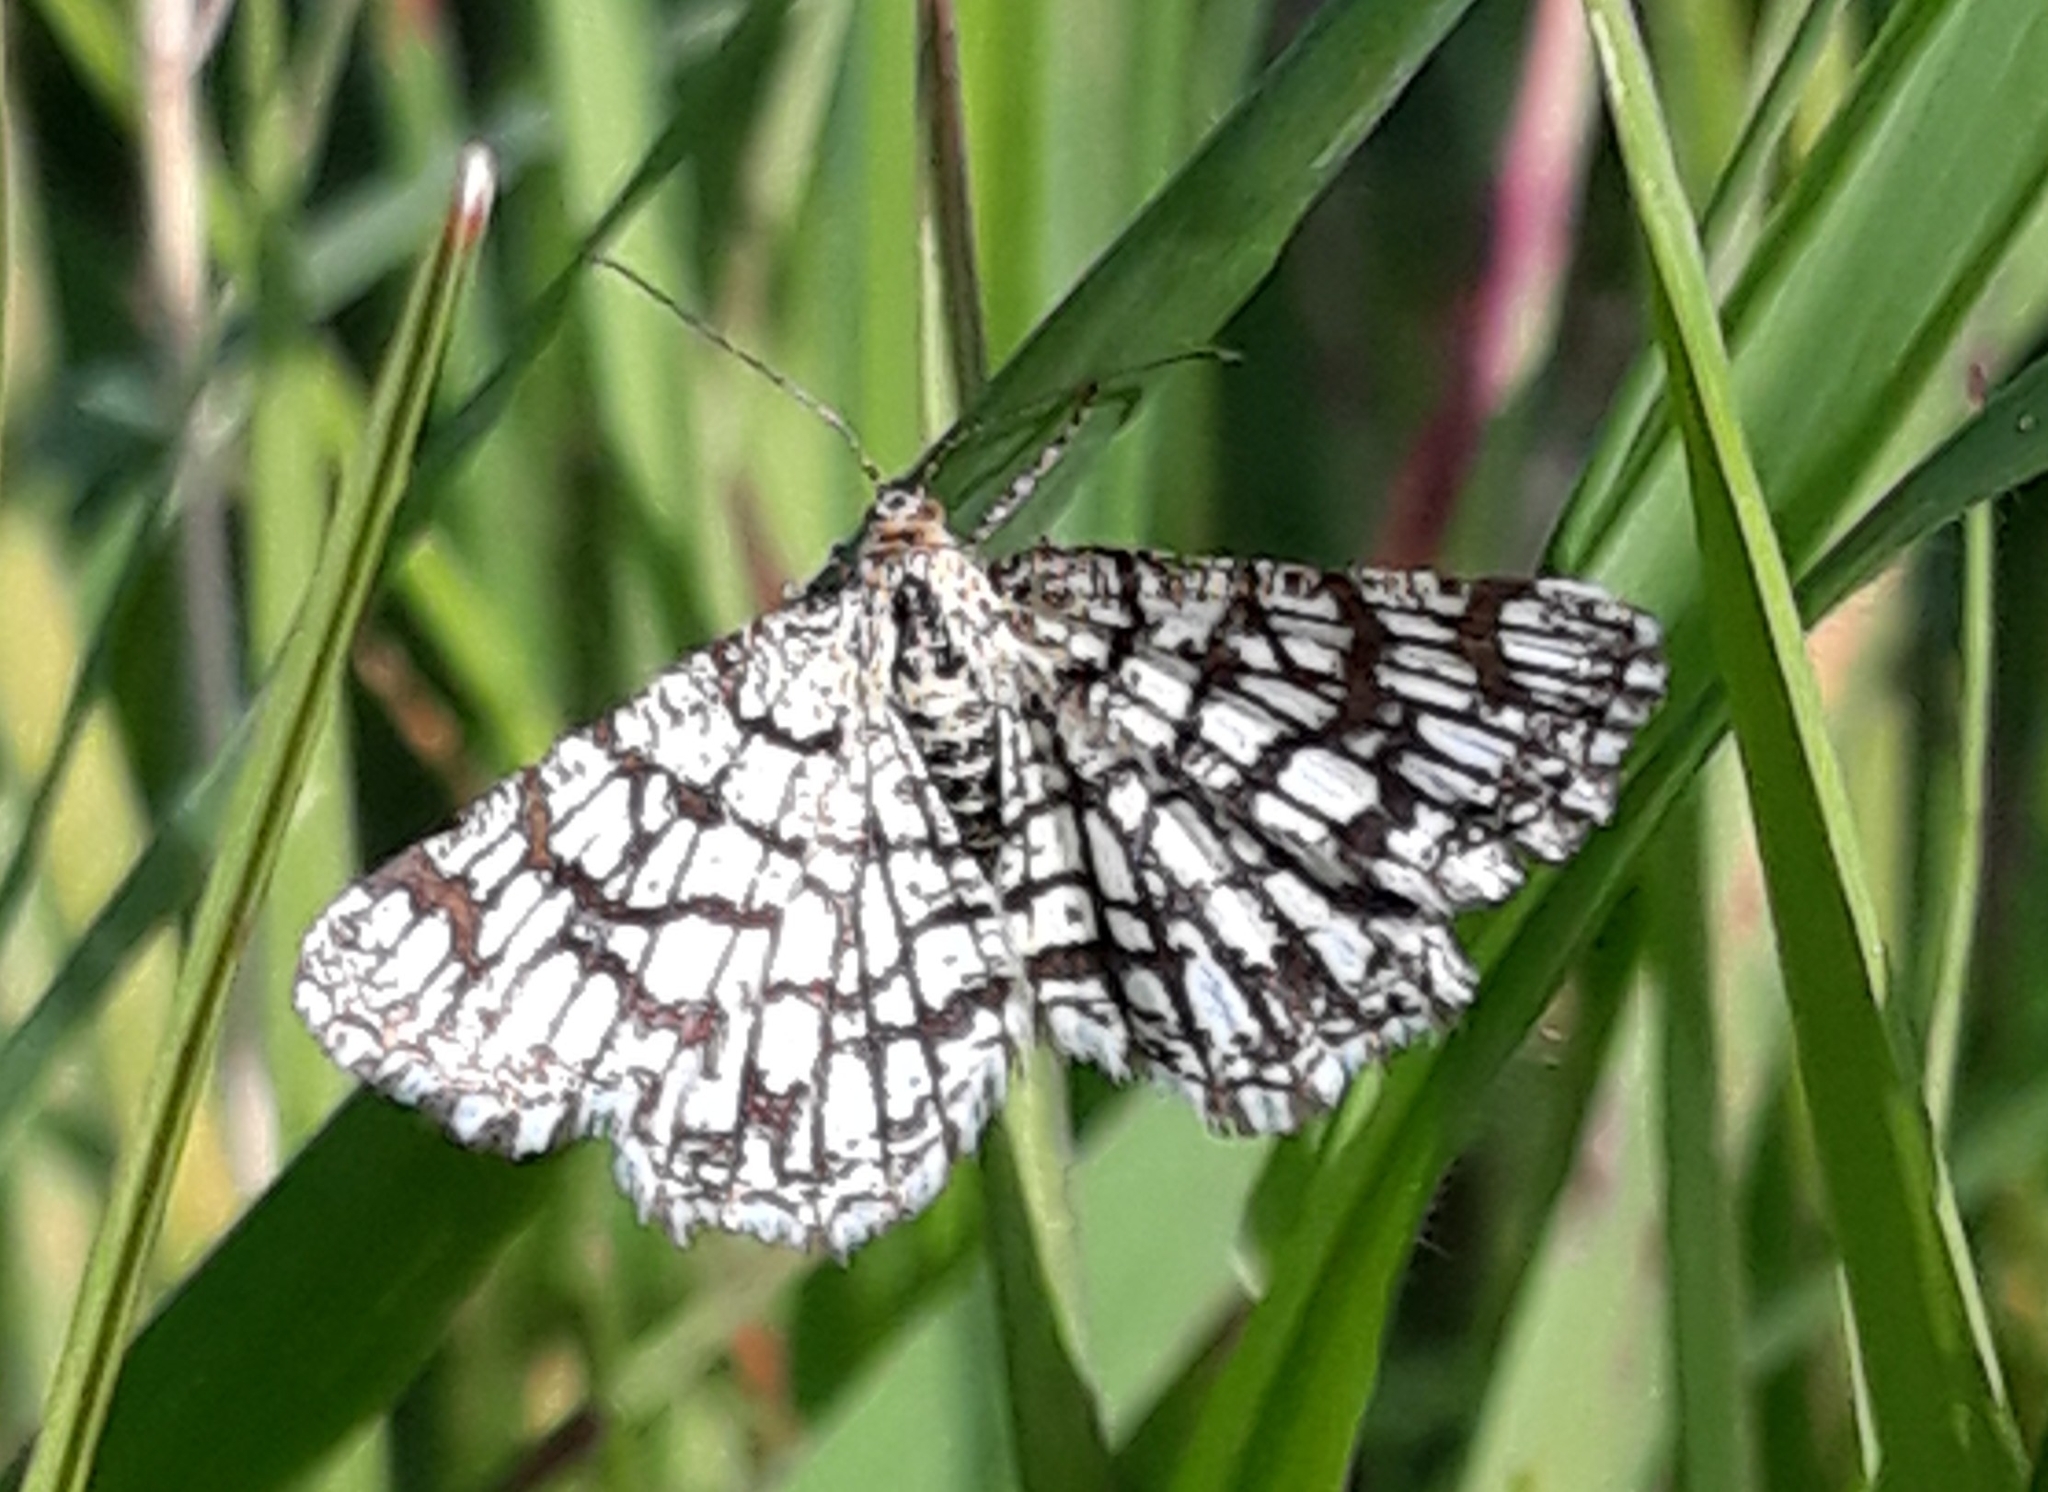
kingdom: Animalia
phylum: Arthropoda
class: Insecta
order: Lepidoptera
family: Geometridae
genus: Chiasmia
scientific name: Chiasmia clathrata
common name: Latticed heath
